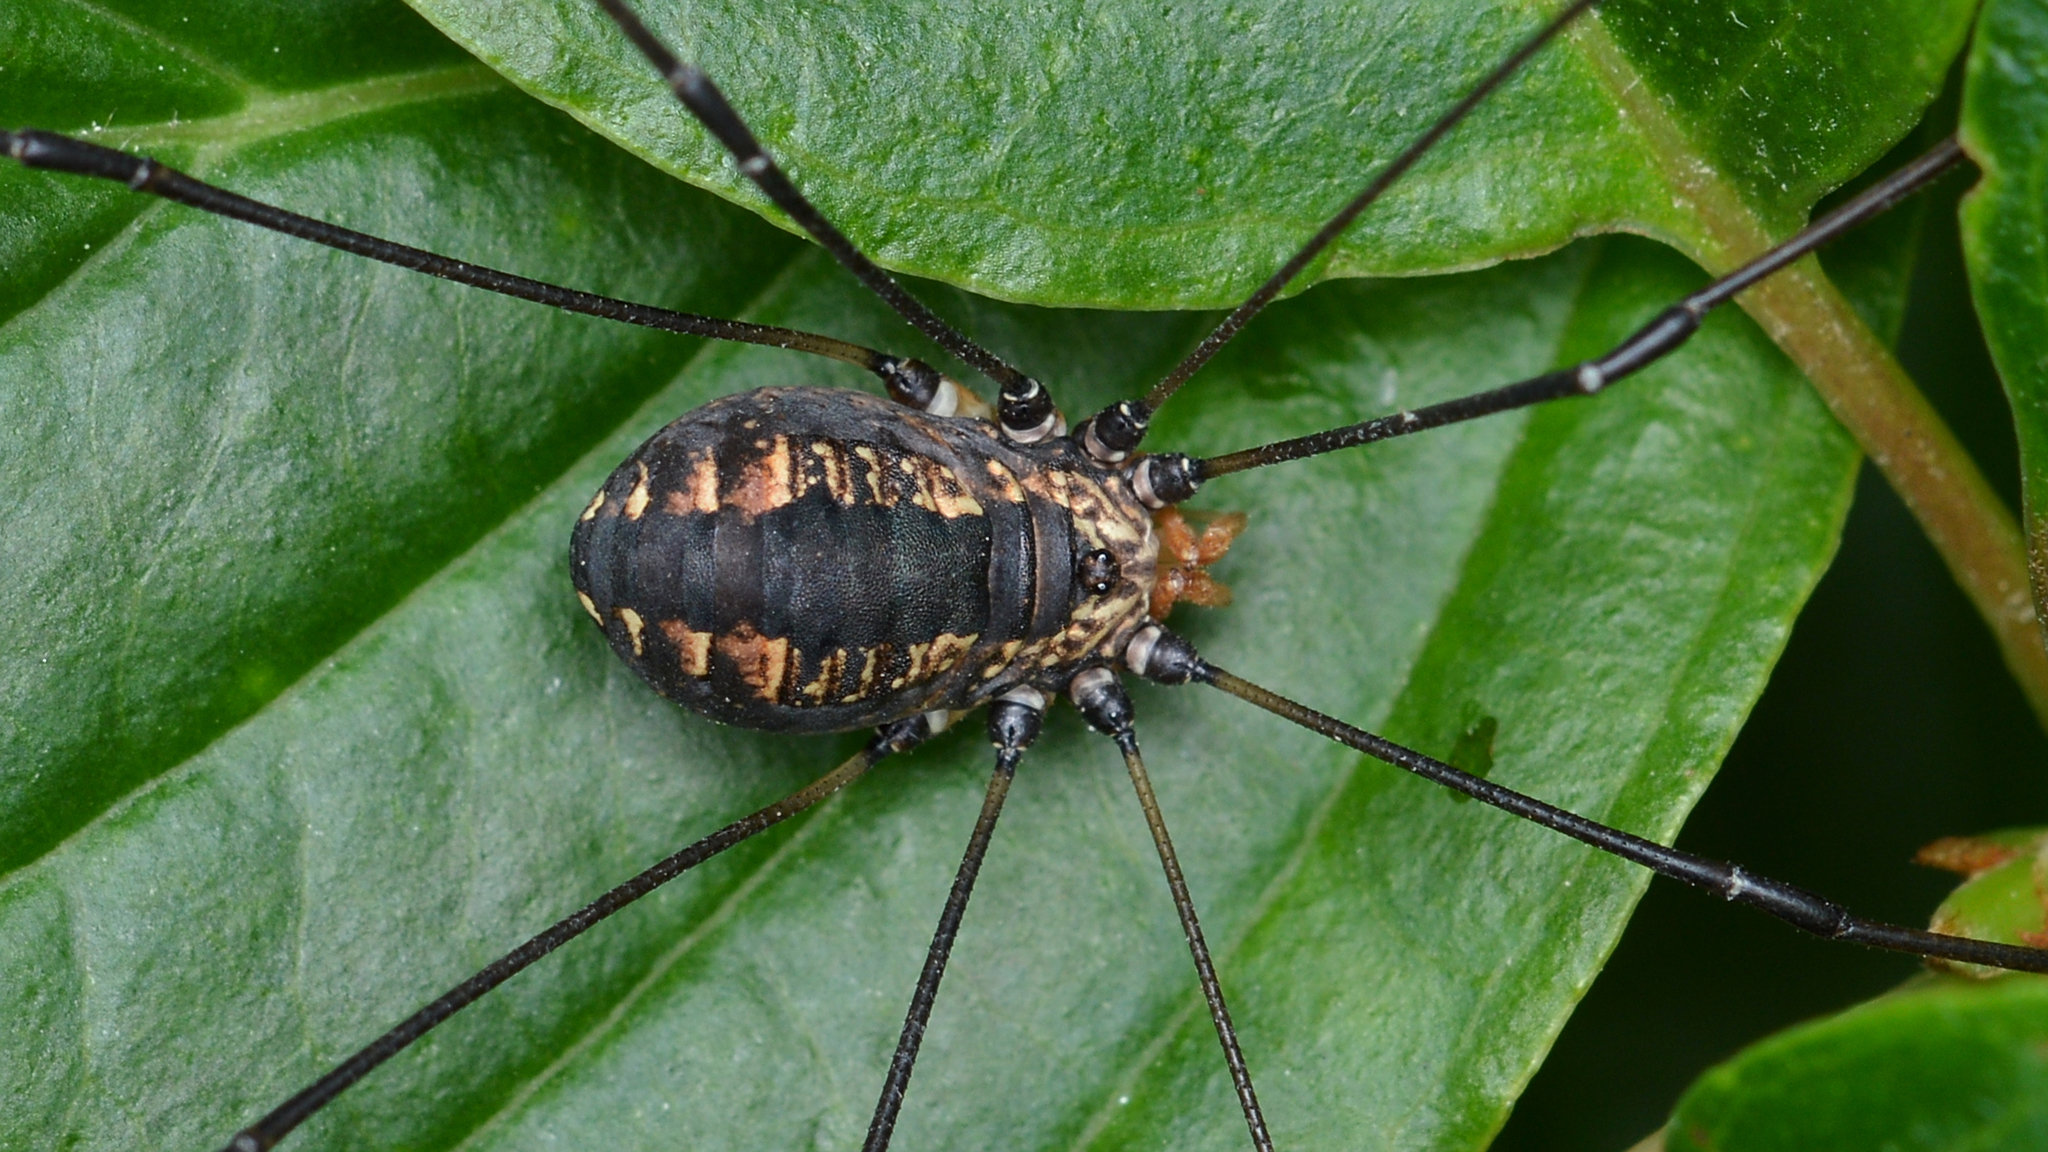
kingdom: Animalia
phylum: Arthropoda
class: Arachnida
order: Opiliones
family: Sclerosomatidae
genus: Leiobunum
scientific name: Leiobunum vittatum
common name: Eastern harvestman
